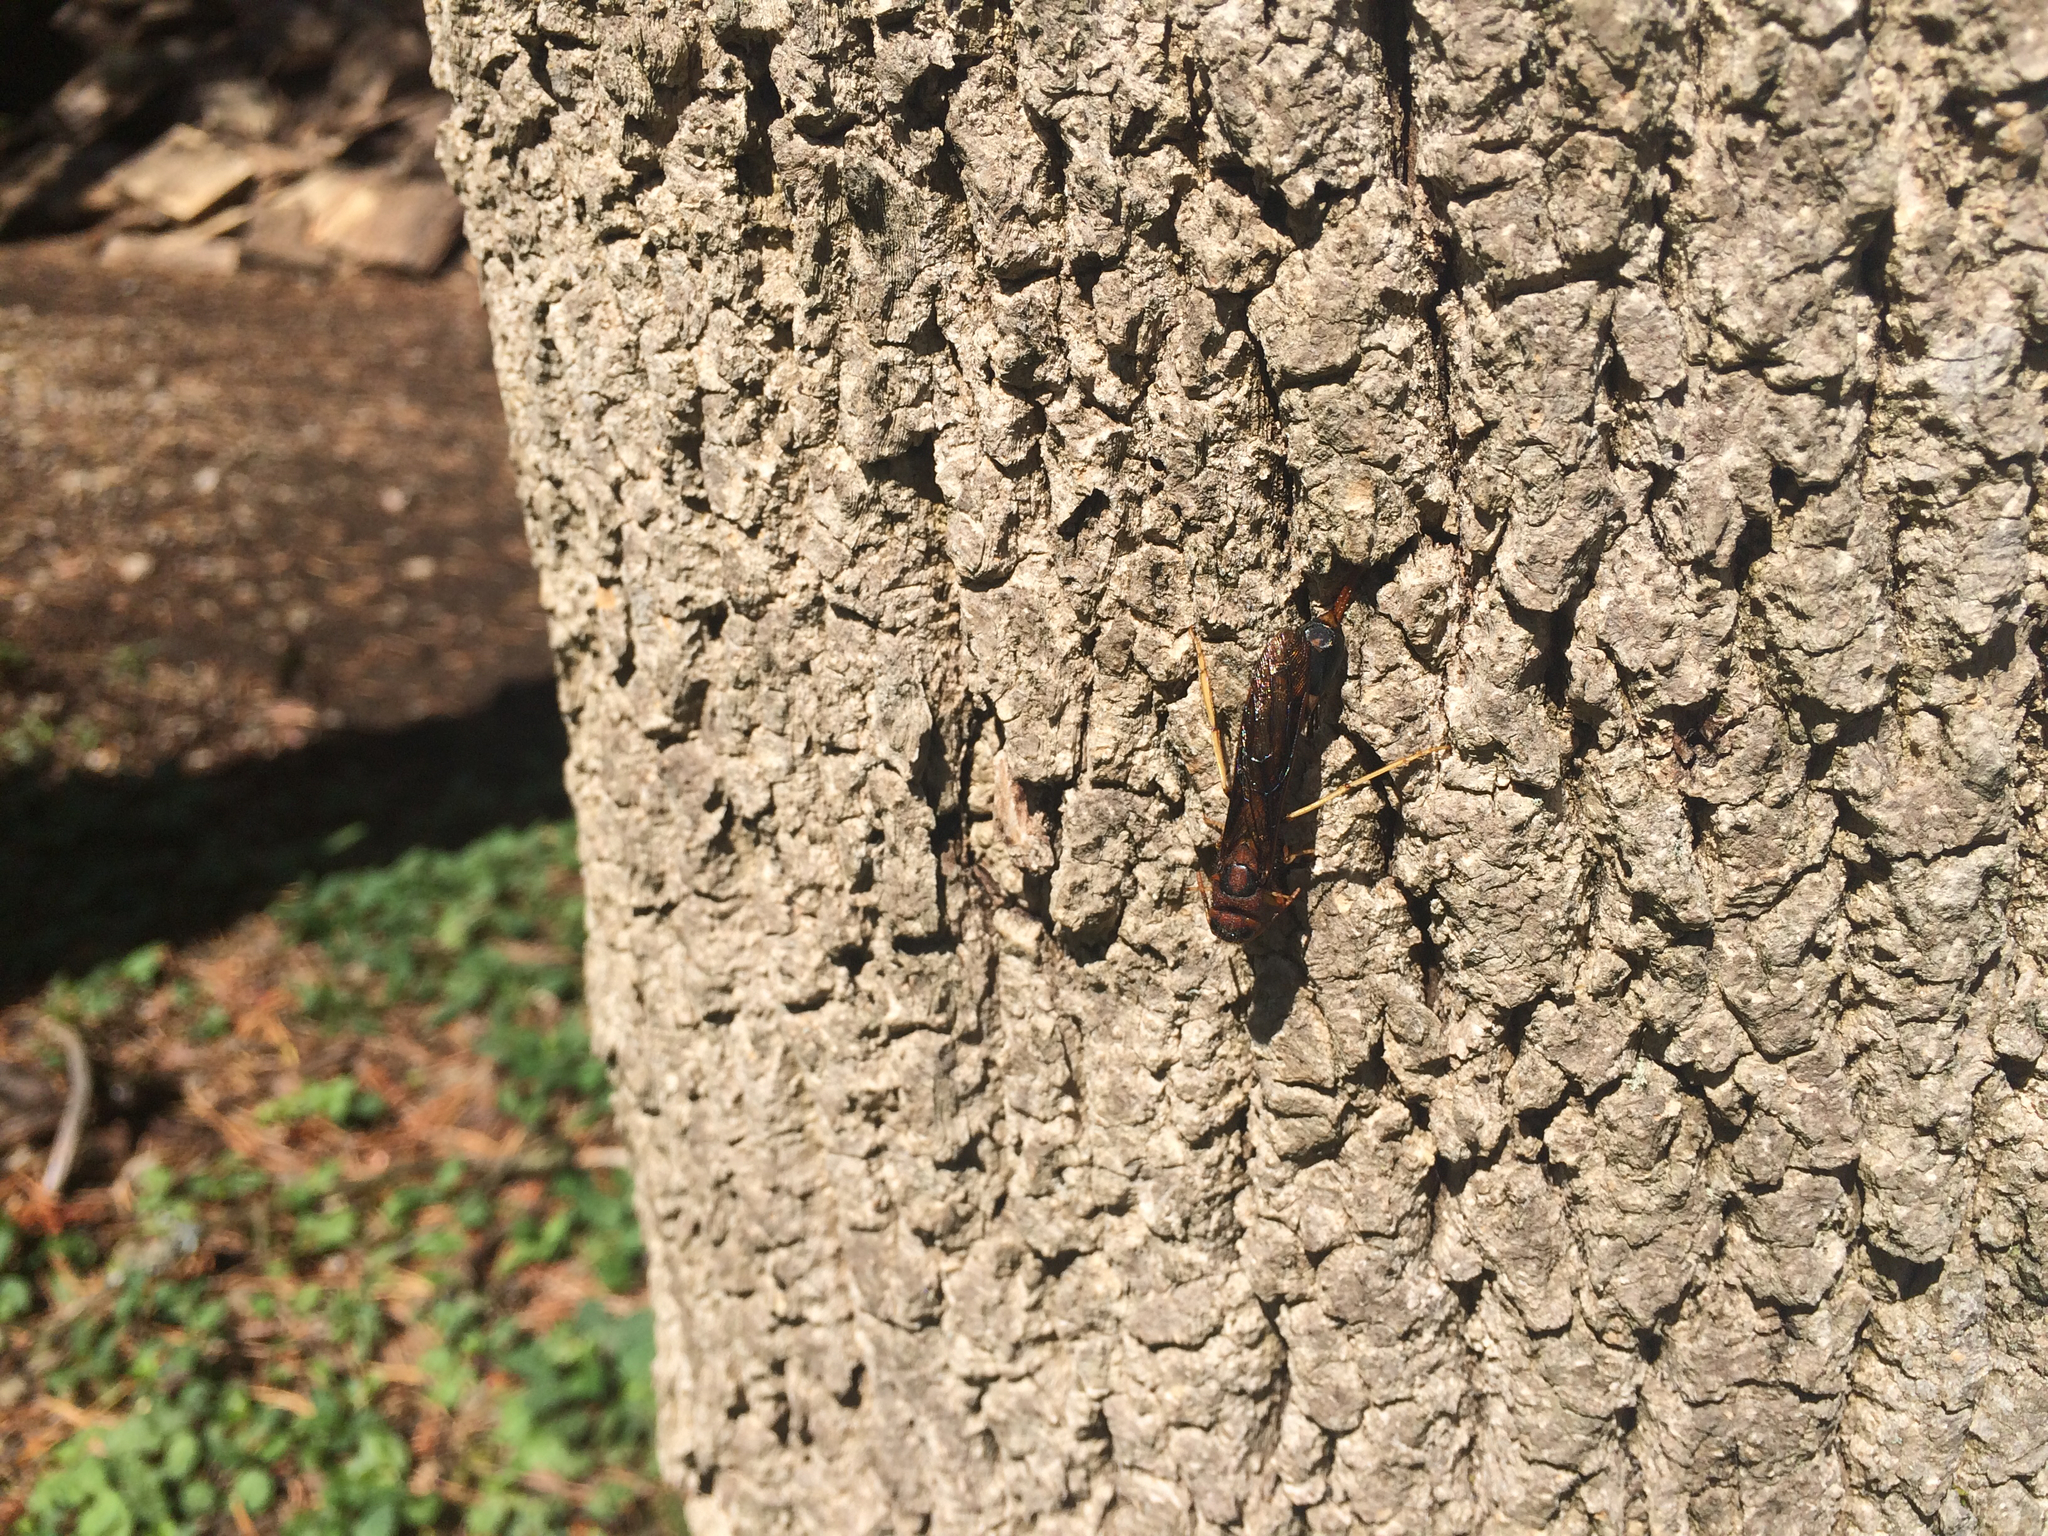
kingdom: Animalia
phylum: Arthropoda
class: Insecta
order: Hymenoptera
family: Siricidae
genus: Tremex
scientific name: Tremex columba
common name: Wasp
